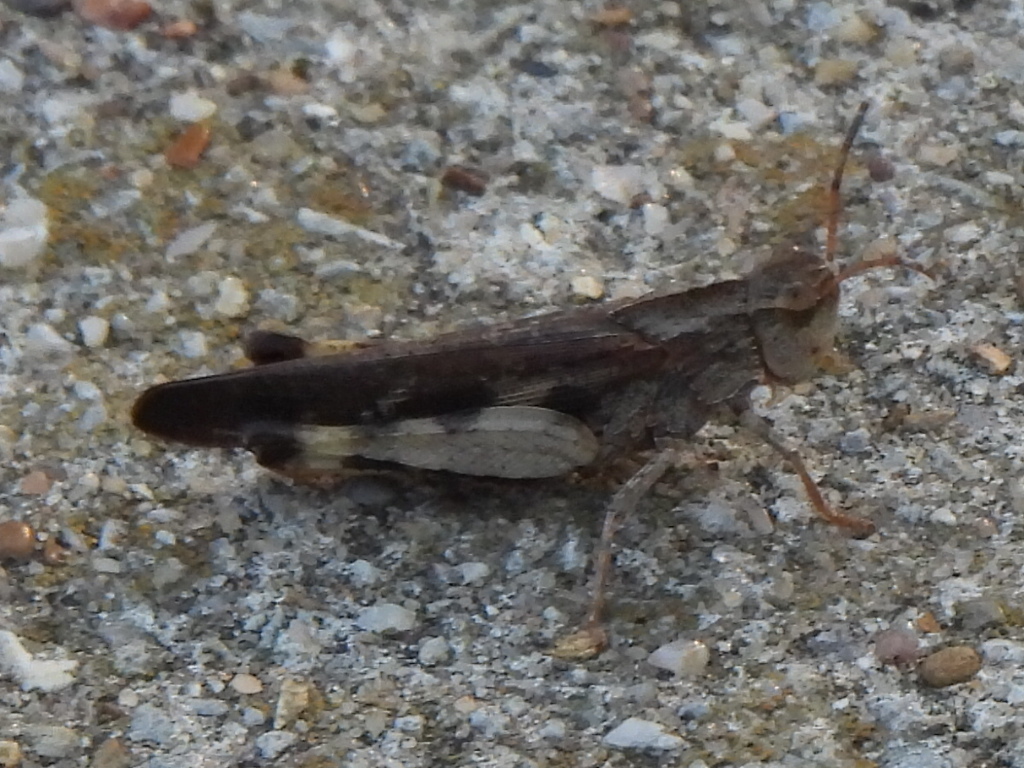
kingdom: Animalia
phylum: Arthropoda
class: Insecta
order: Orthoptera
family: Acrididae
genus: Chortophaga
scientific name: Chortophaga viridifasciata
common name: Green-striped grasshopper
